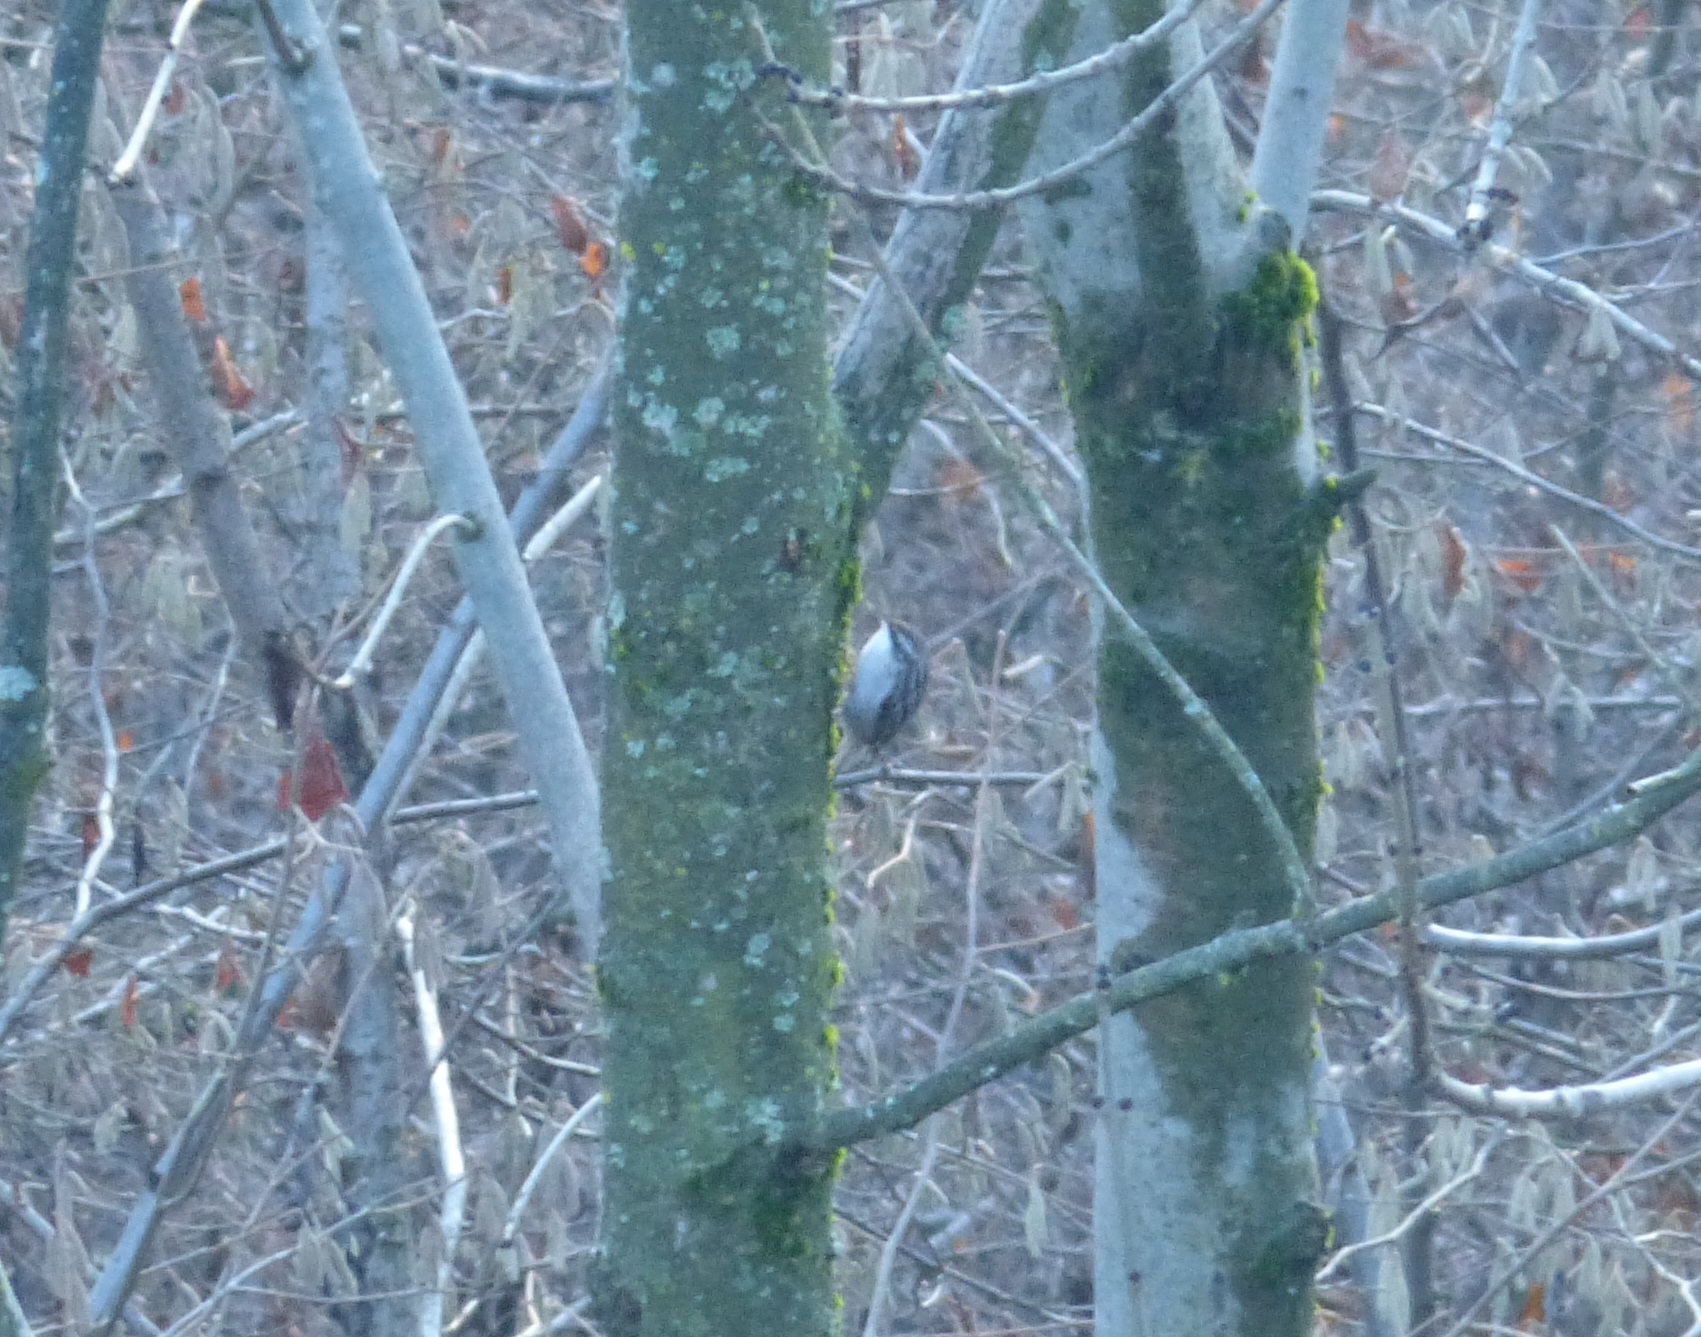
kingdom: Animalia
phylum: Chordata
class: Aves
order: Passeriformes
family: Certhiidae
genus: Certhia
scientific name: Certhia brachydactyla
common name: Short-toed treecreeper
